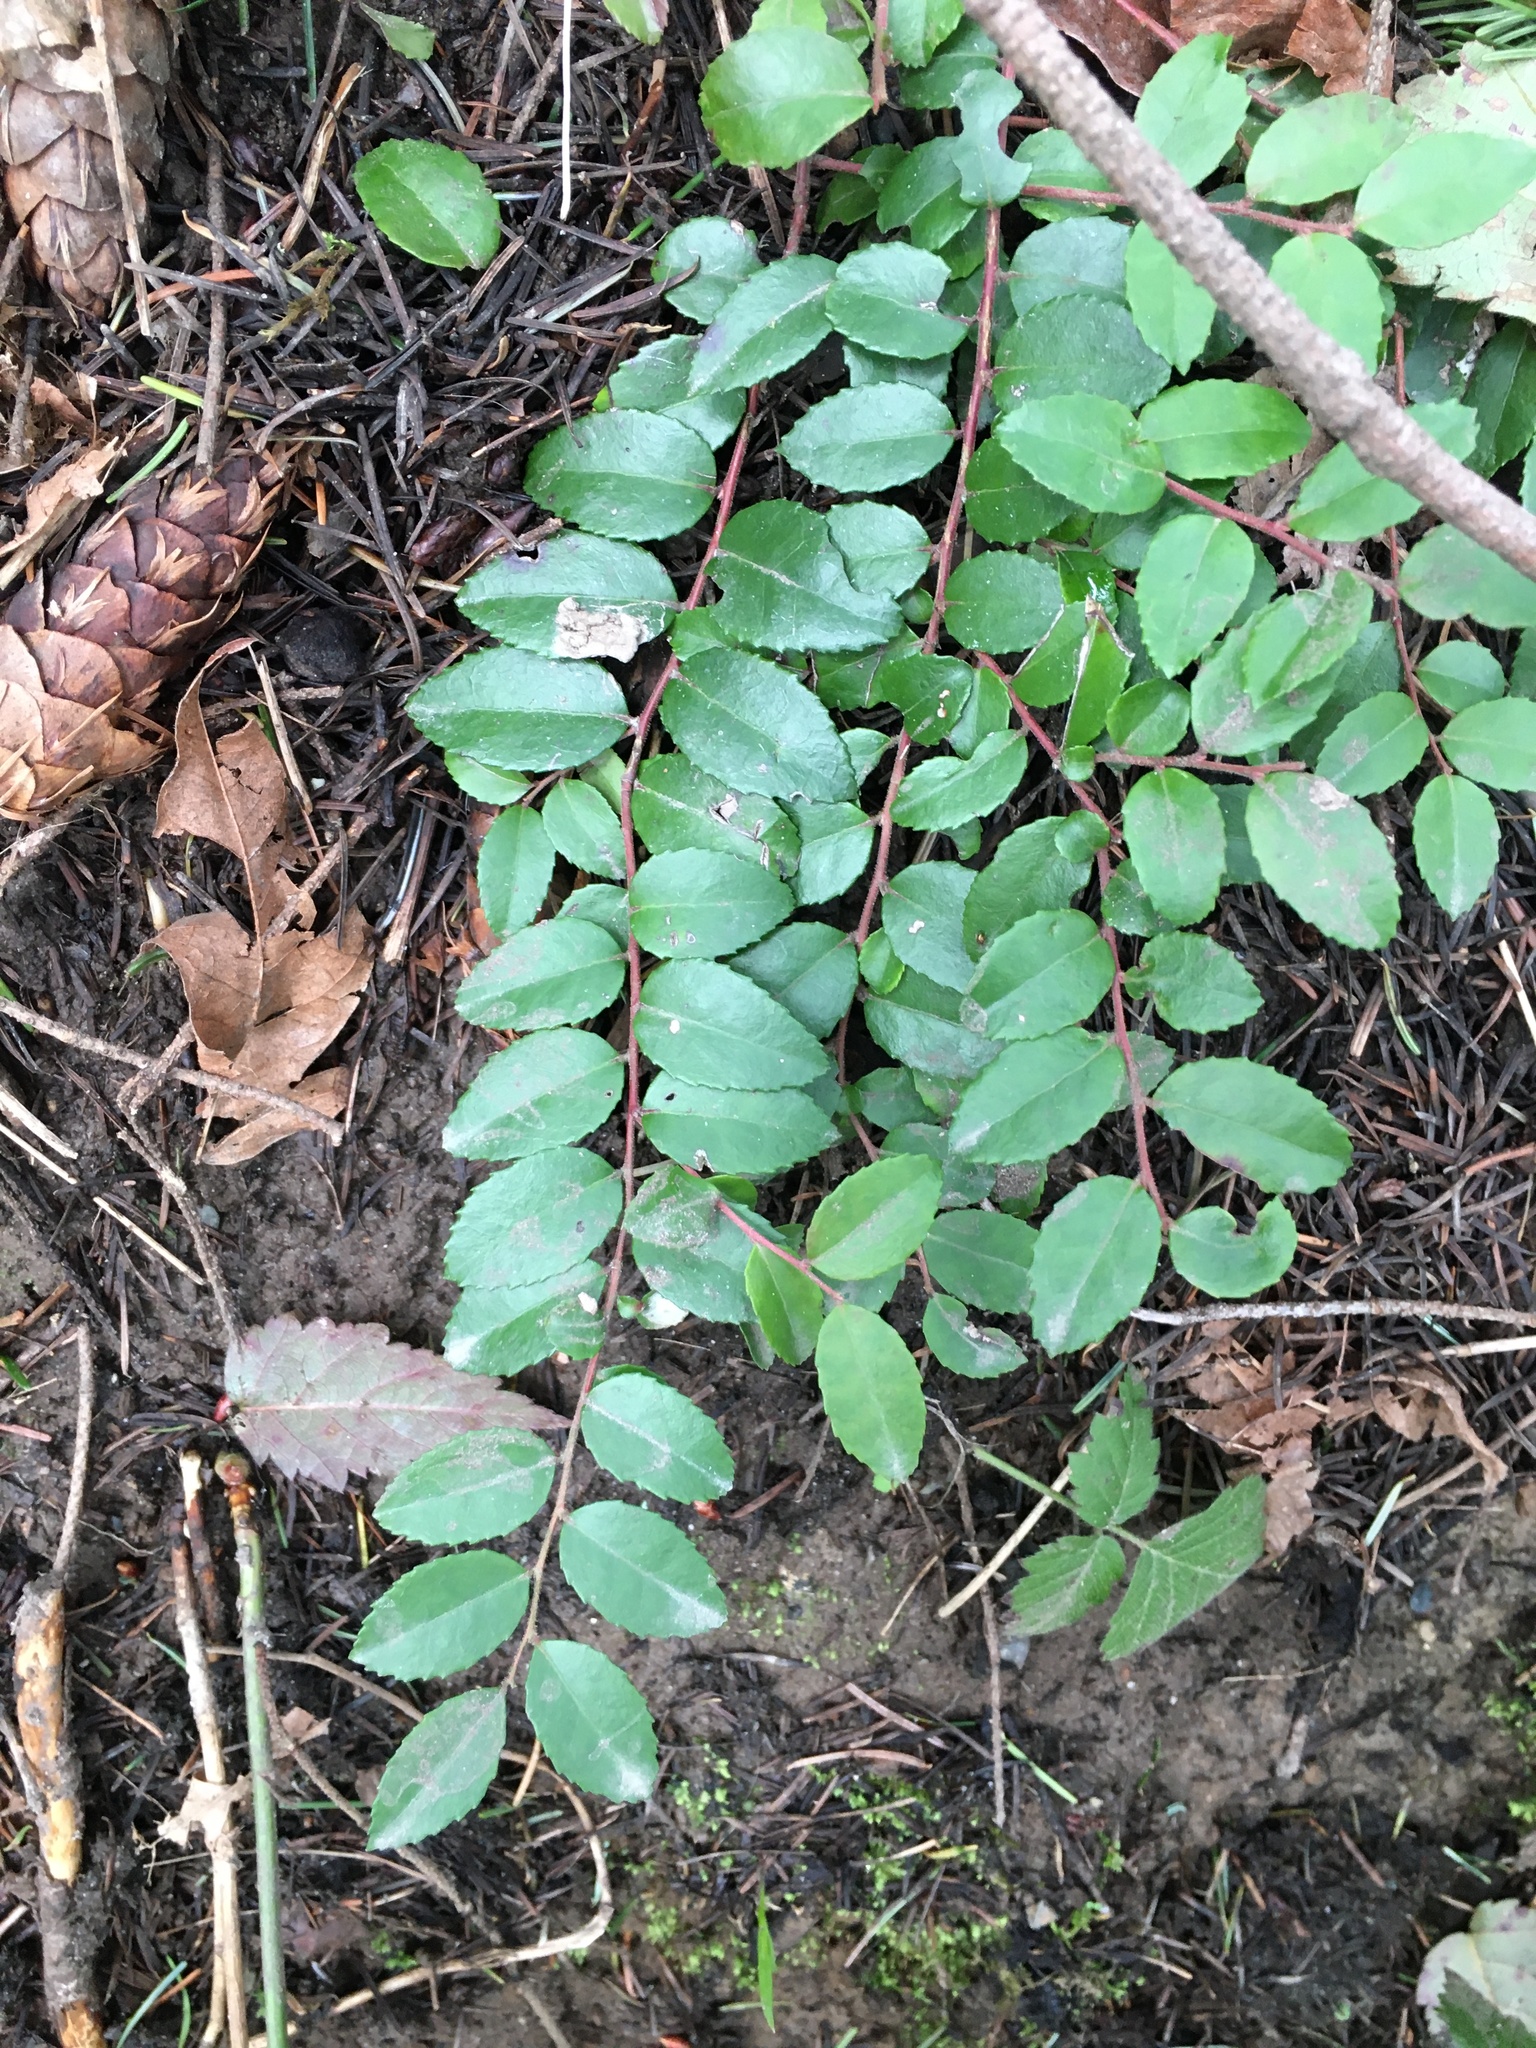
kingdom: Plantae
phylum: Tracheophyta
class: Magnoliopsida
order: Ericales
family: Ericaceae
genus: Vaccinium
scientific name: Vaccinium ovatum
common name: California-huckleberry
